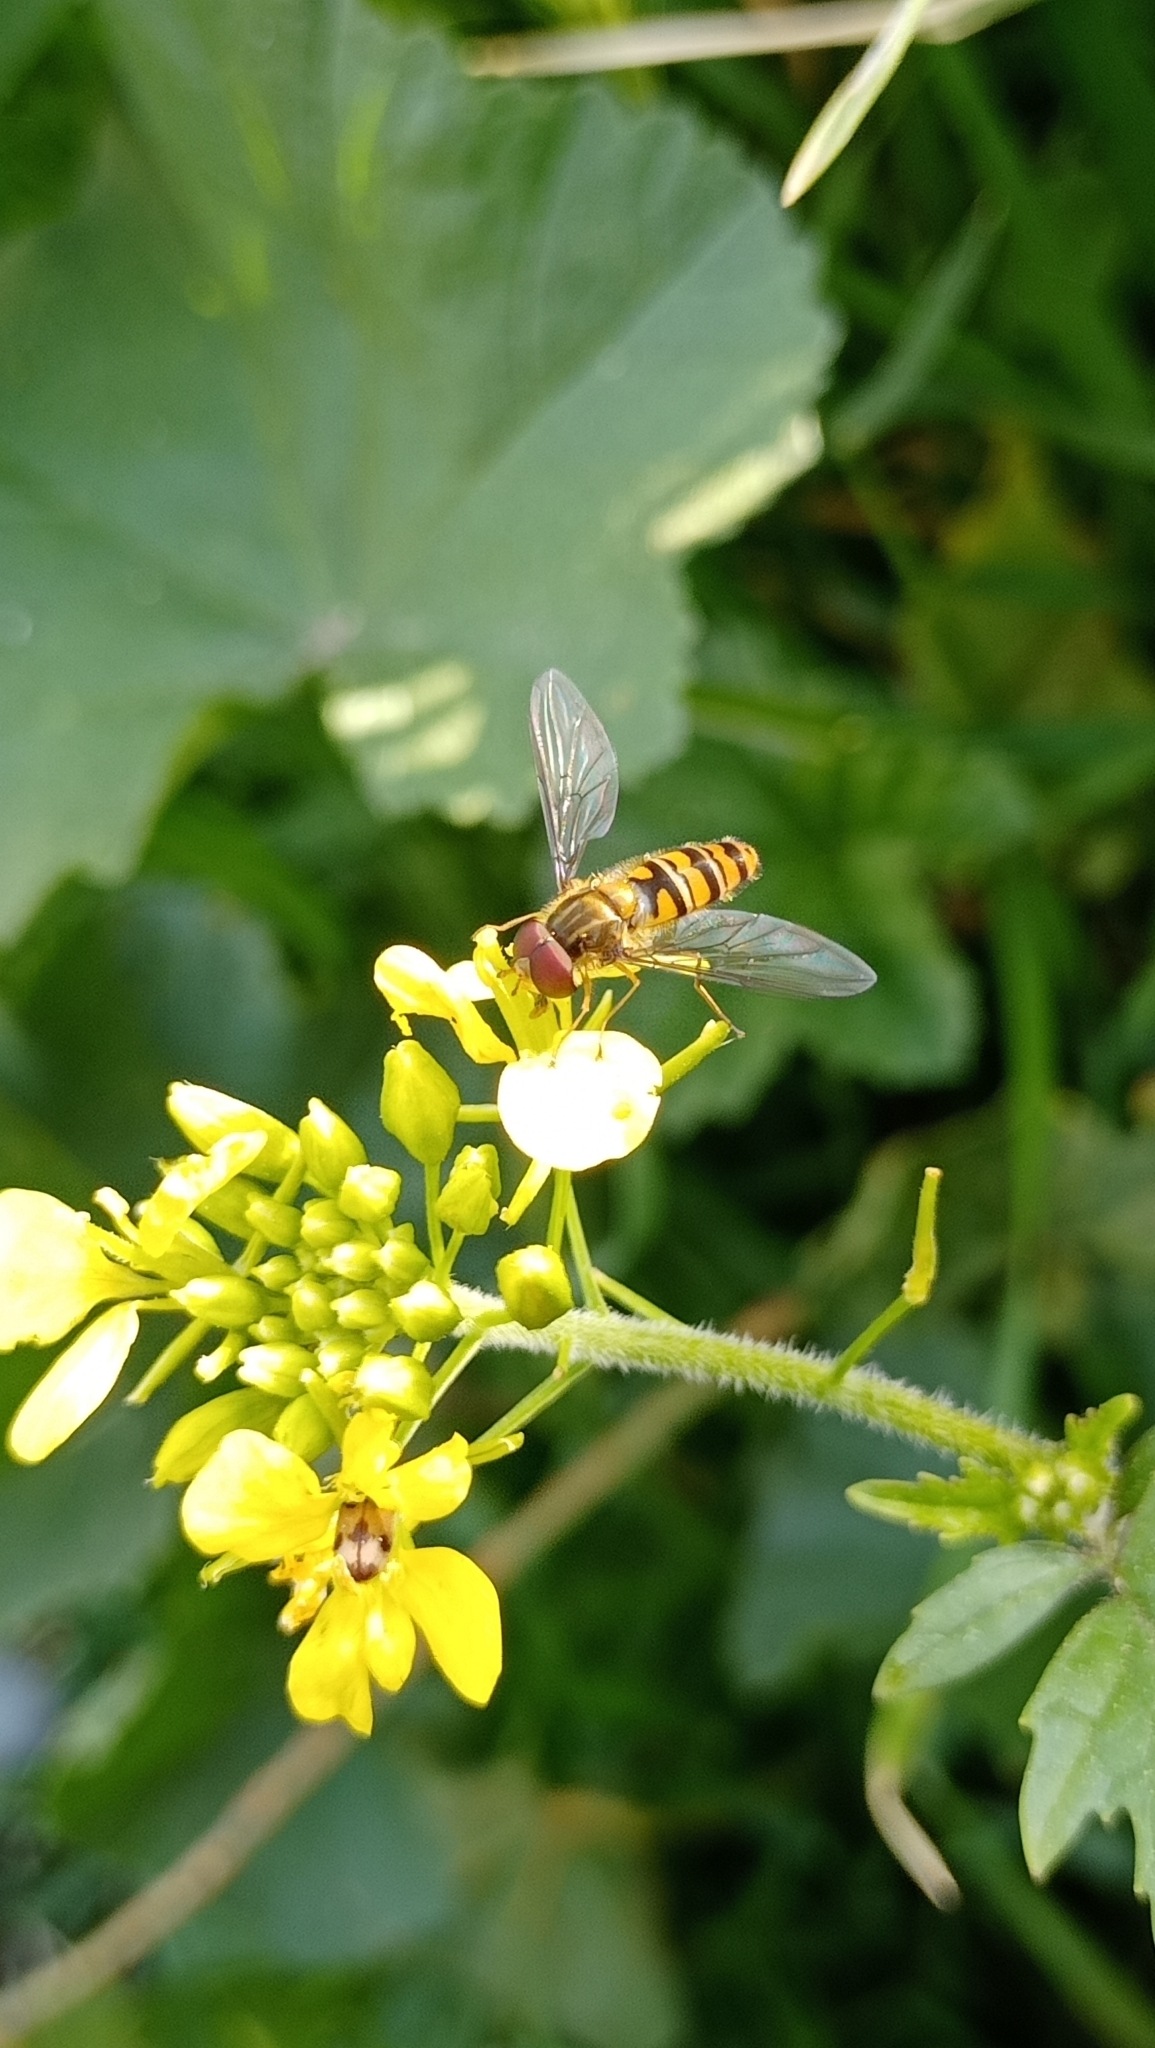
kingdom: Animalia
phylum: Arthropoda
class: Insecta
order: Diptera
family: Syrphidae
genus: Episyrphus
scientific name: Episyrphus balteatus
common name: Marmalade hoverfly
